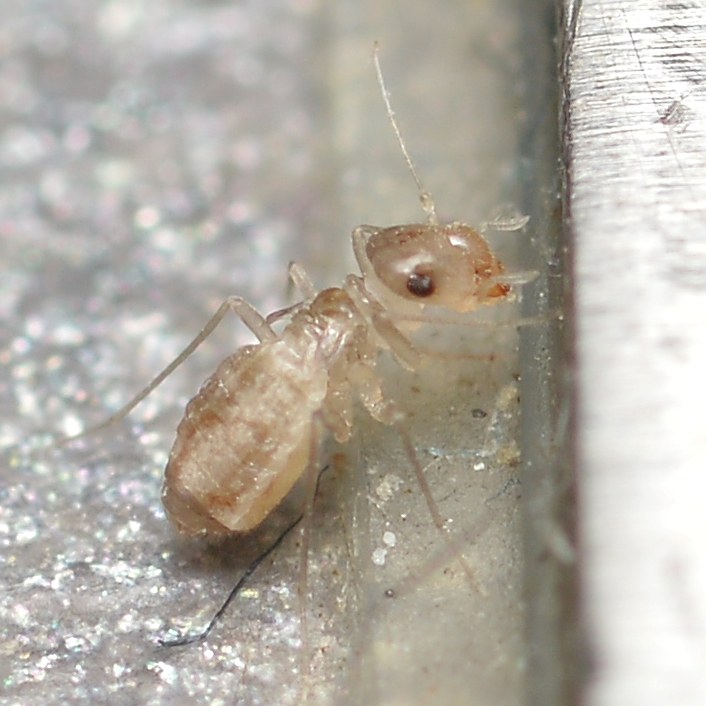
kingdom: Animalia
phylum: Arthropoda
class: Insecta
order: Psocodea
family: Psyllipsocidae
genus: Psyllipsocus
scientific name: Psyllipsocus ramburii
